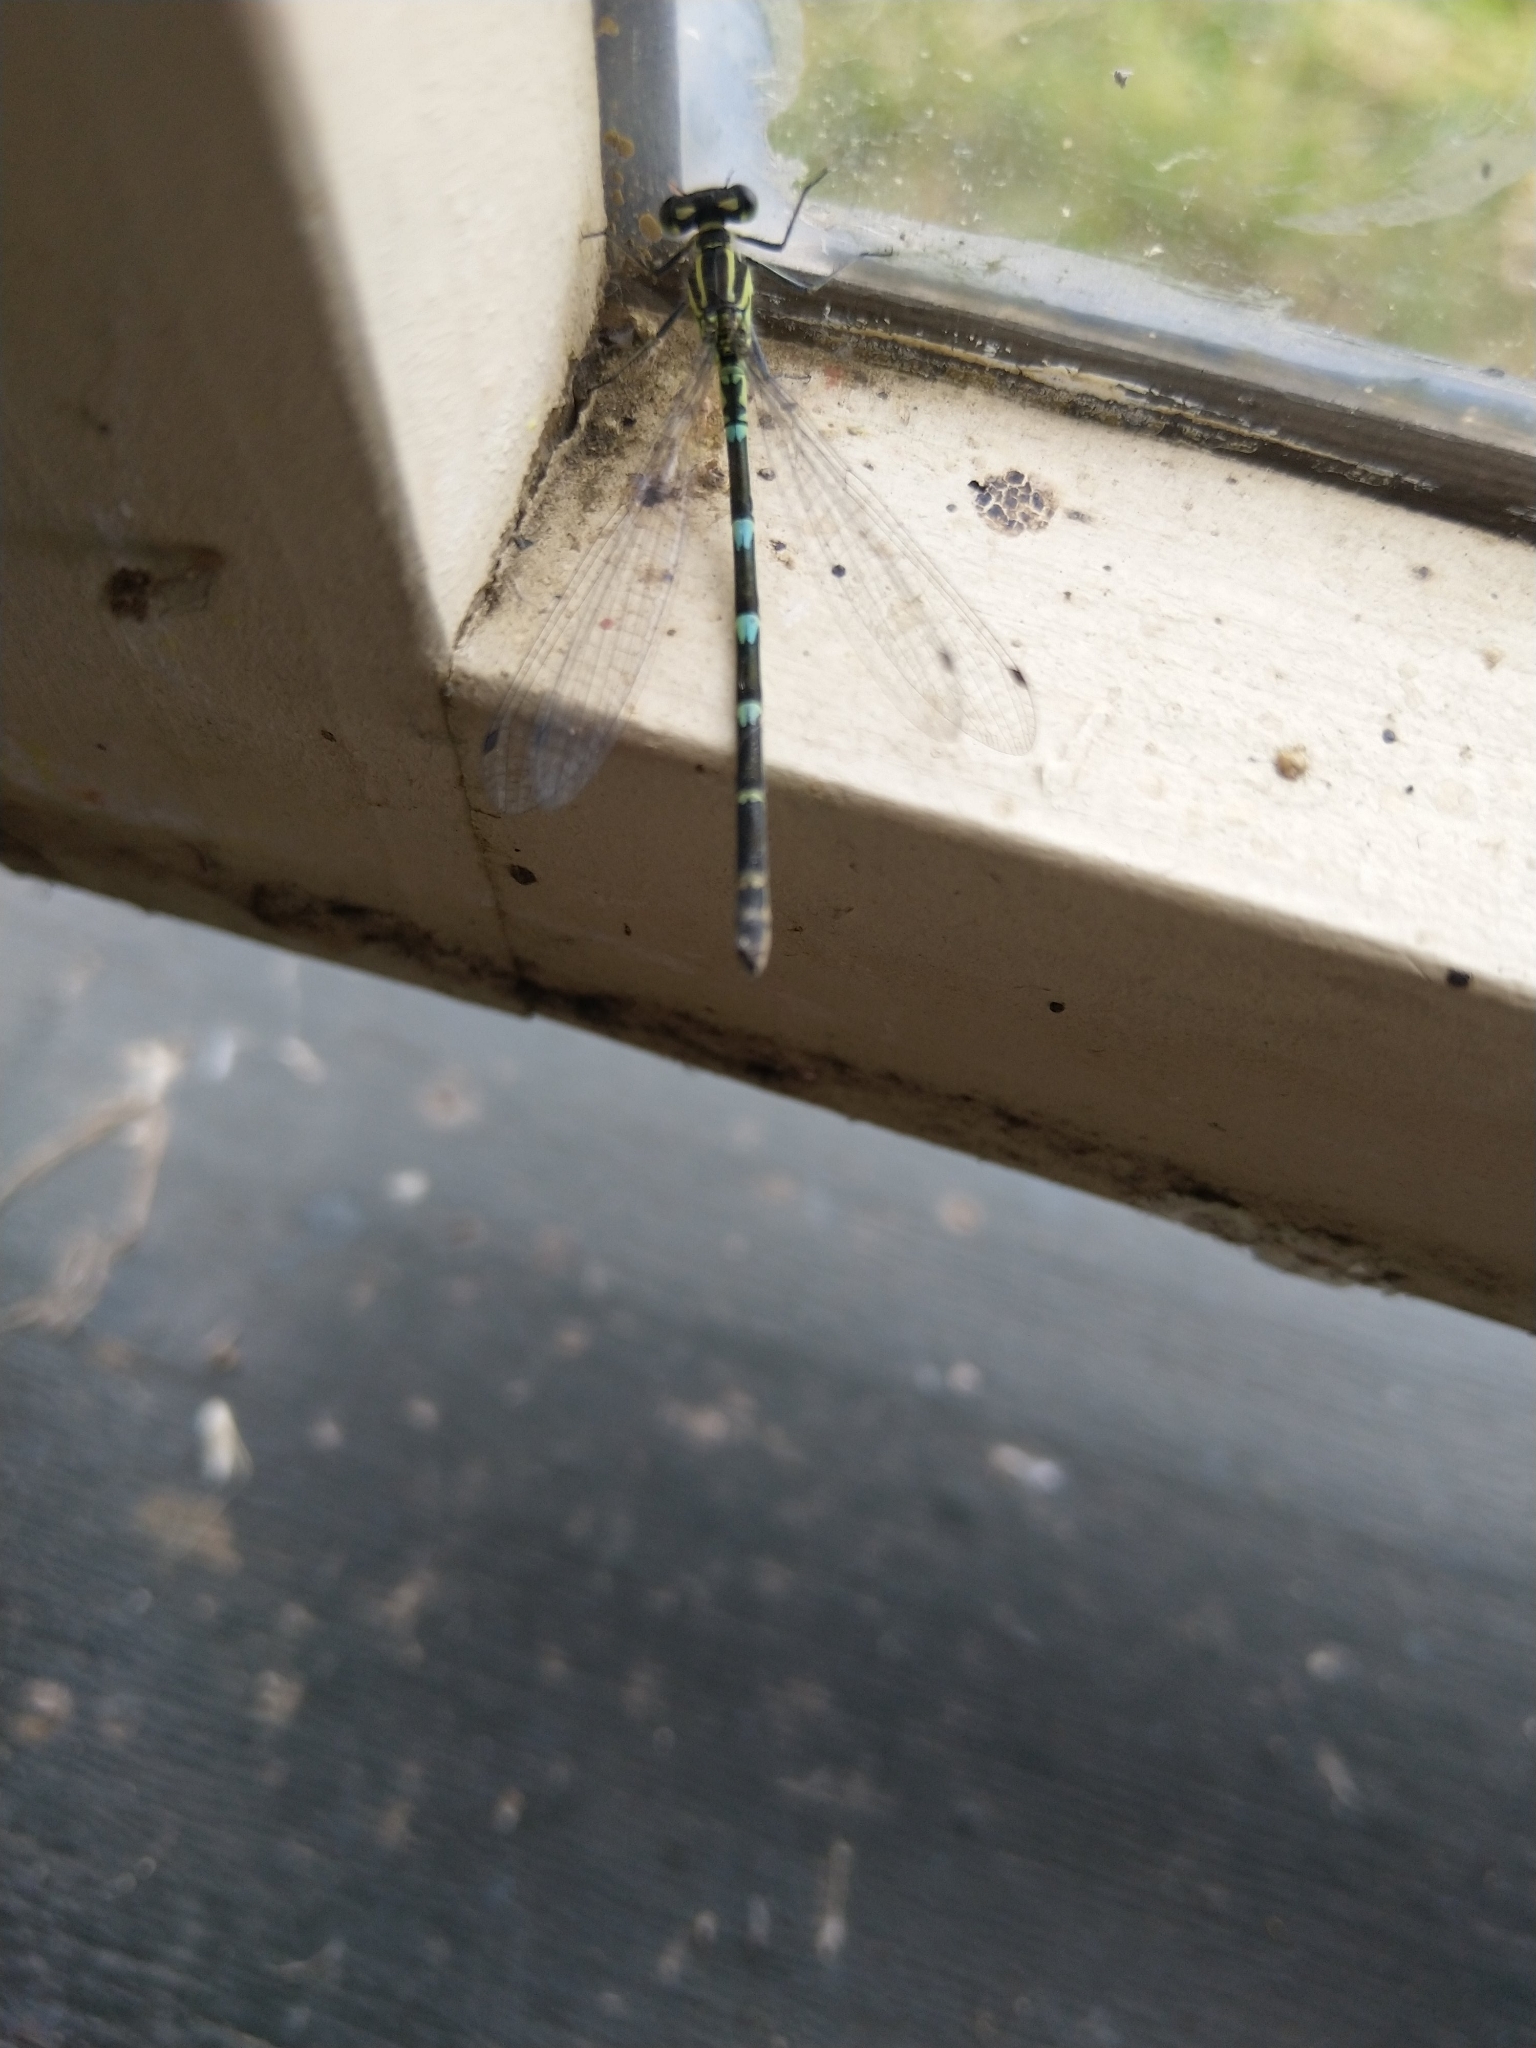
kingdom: Animalia
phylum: Arthropoda
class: Insecta
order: Odonata
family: Coenagrionidae
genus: Coenagrion
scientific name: Coenagrion puella
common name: Azure damselfly
